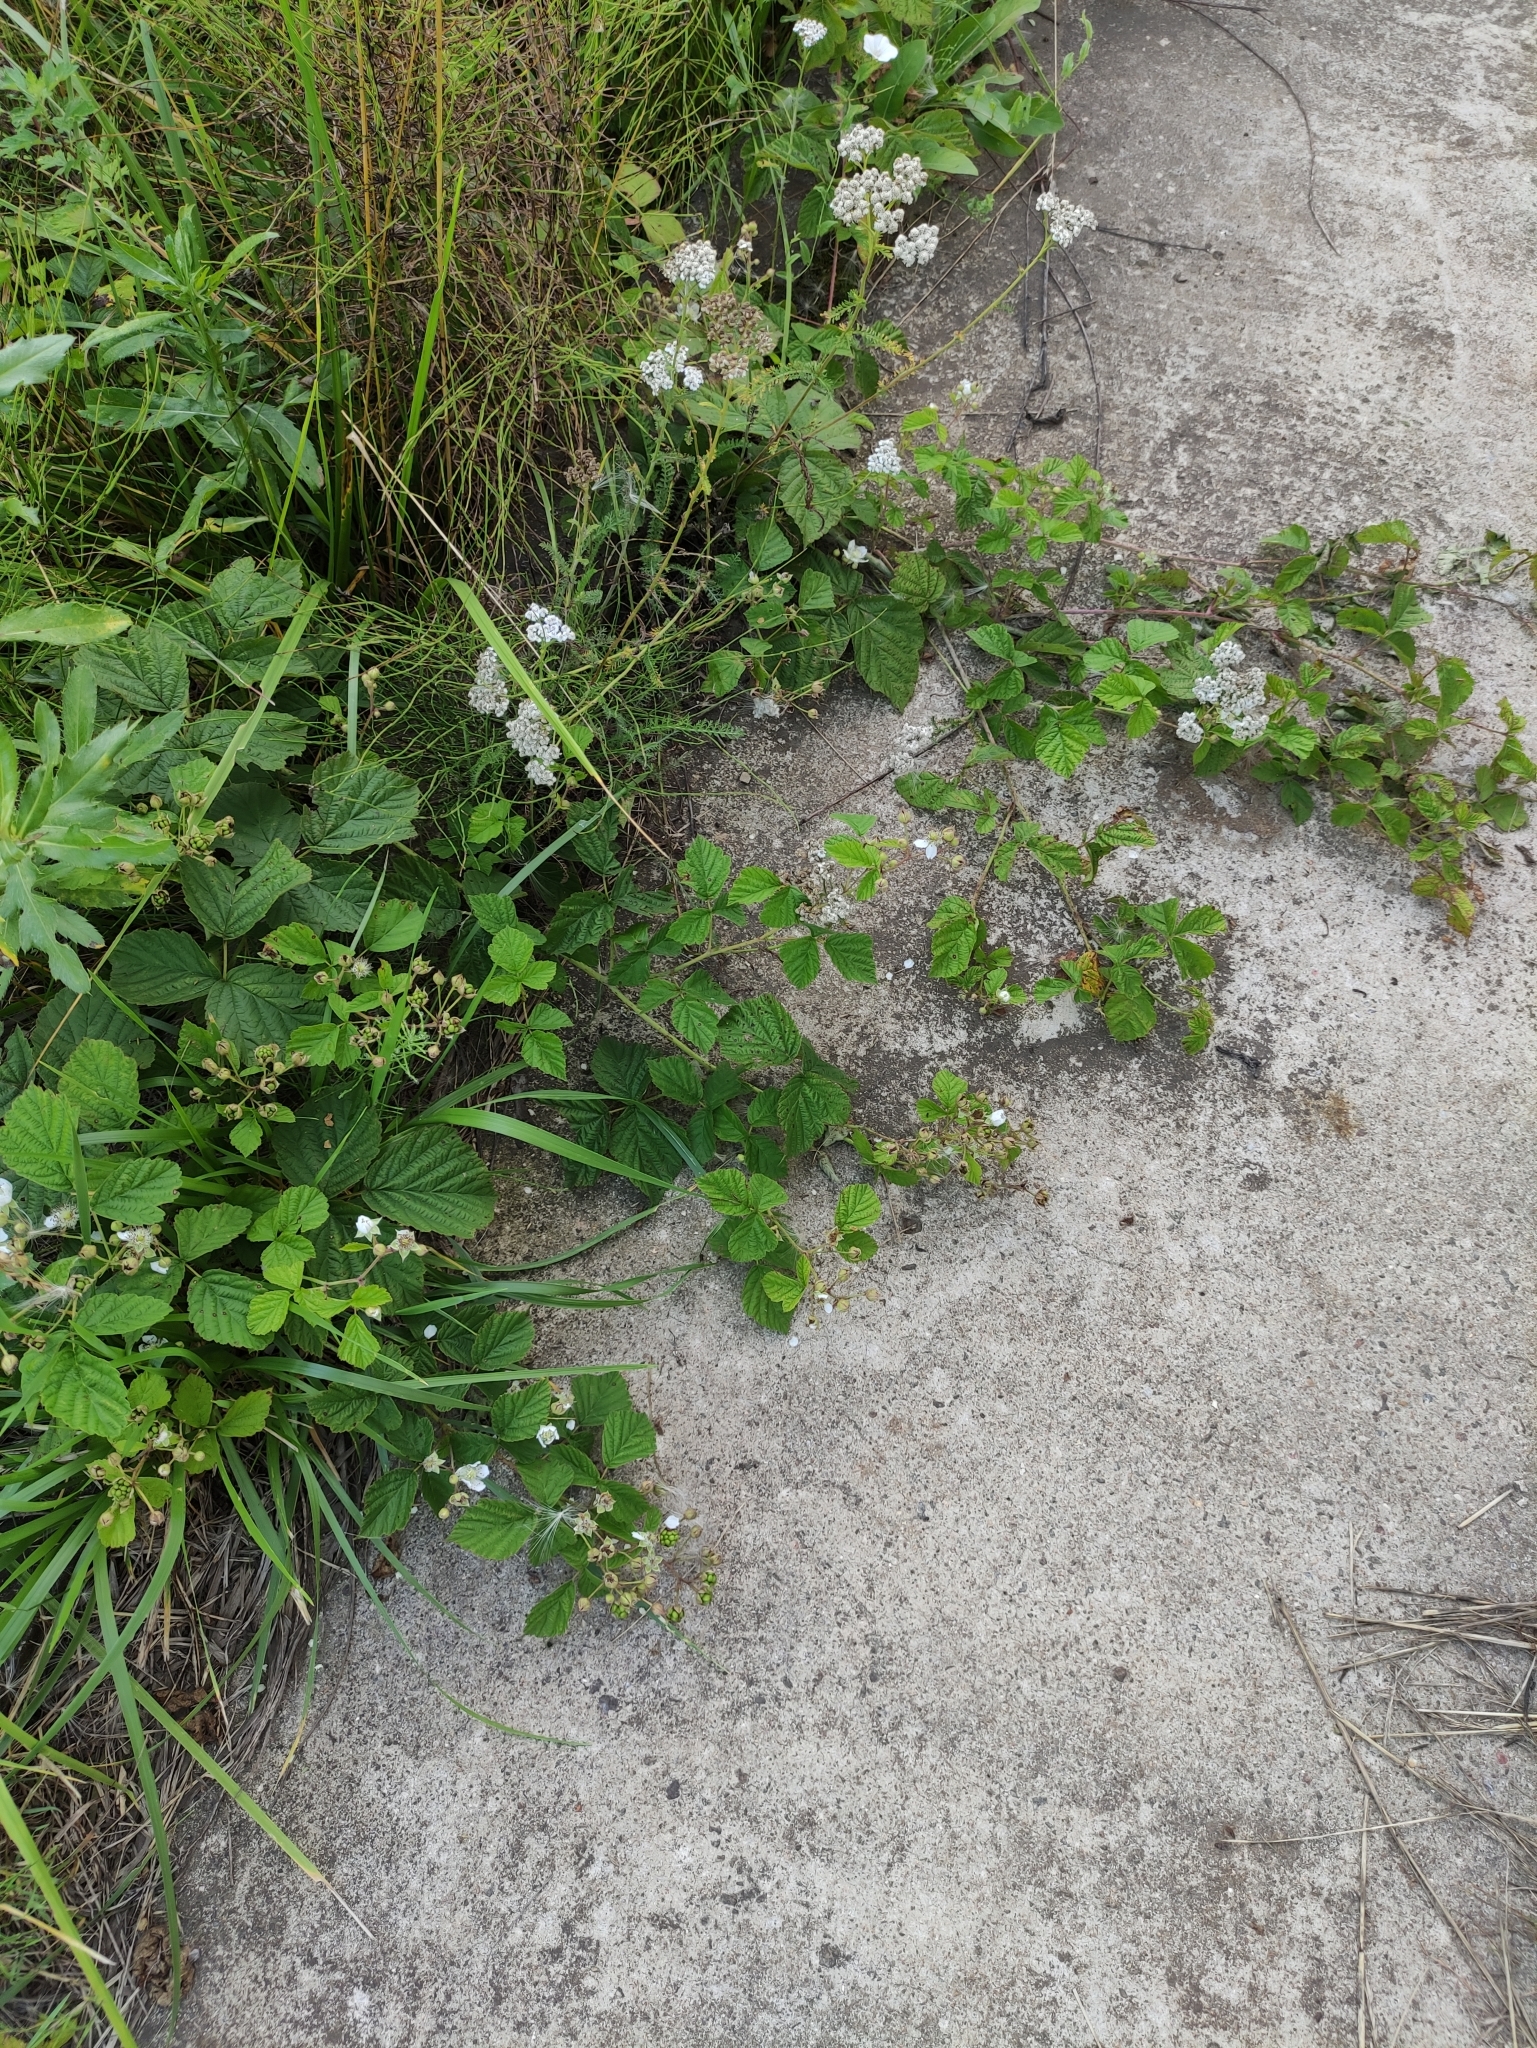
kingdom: Plantae
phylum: Tracheophyta
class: Magnoliopsida
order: Rosales
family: Rosaceae
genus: Rubus
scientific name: Rubus caesius
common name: Dewberry
